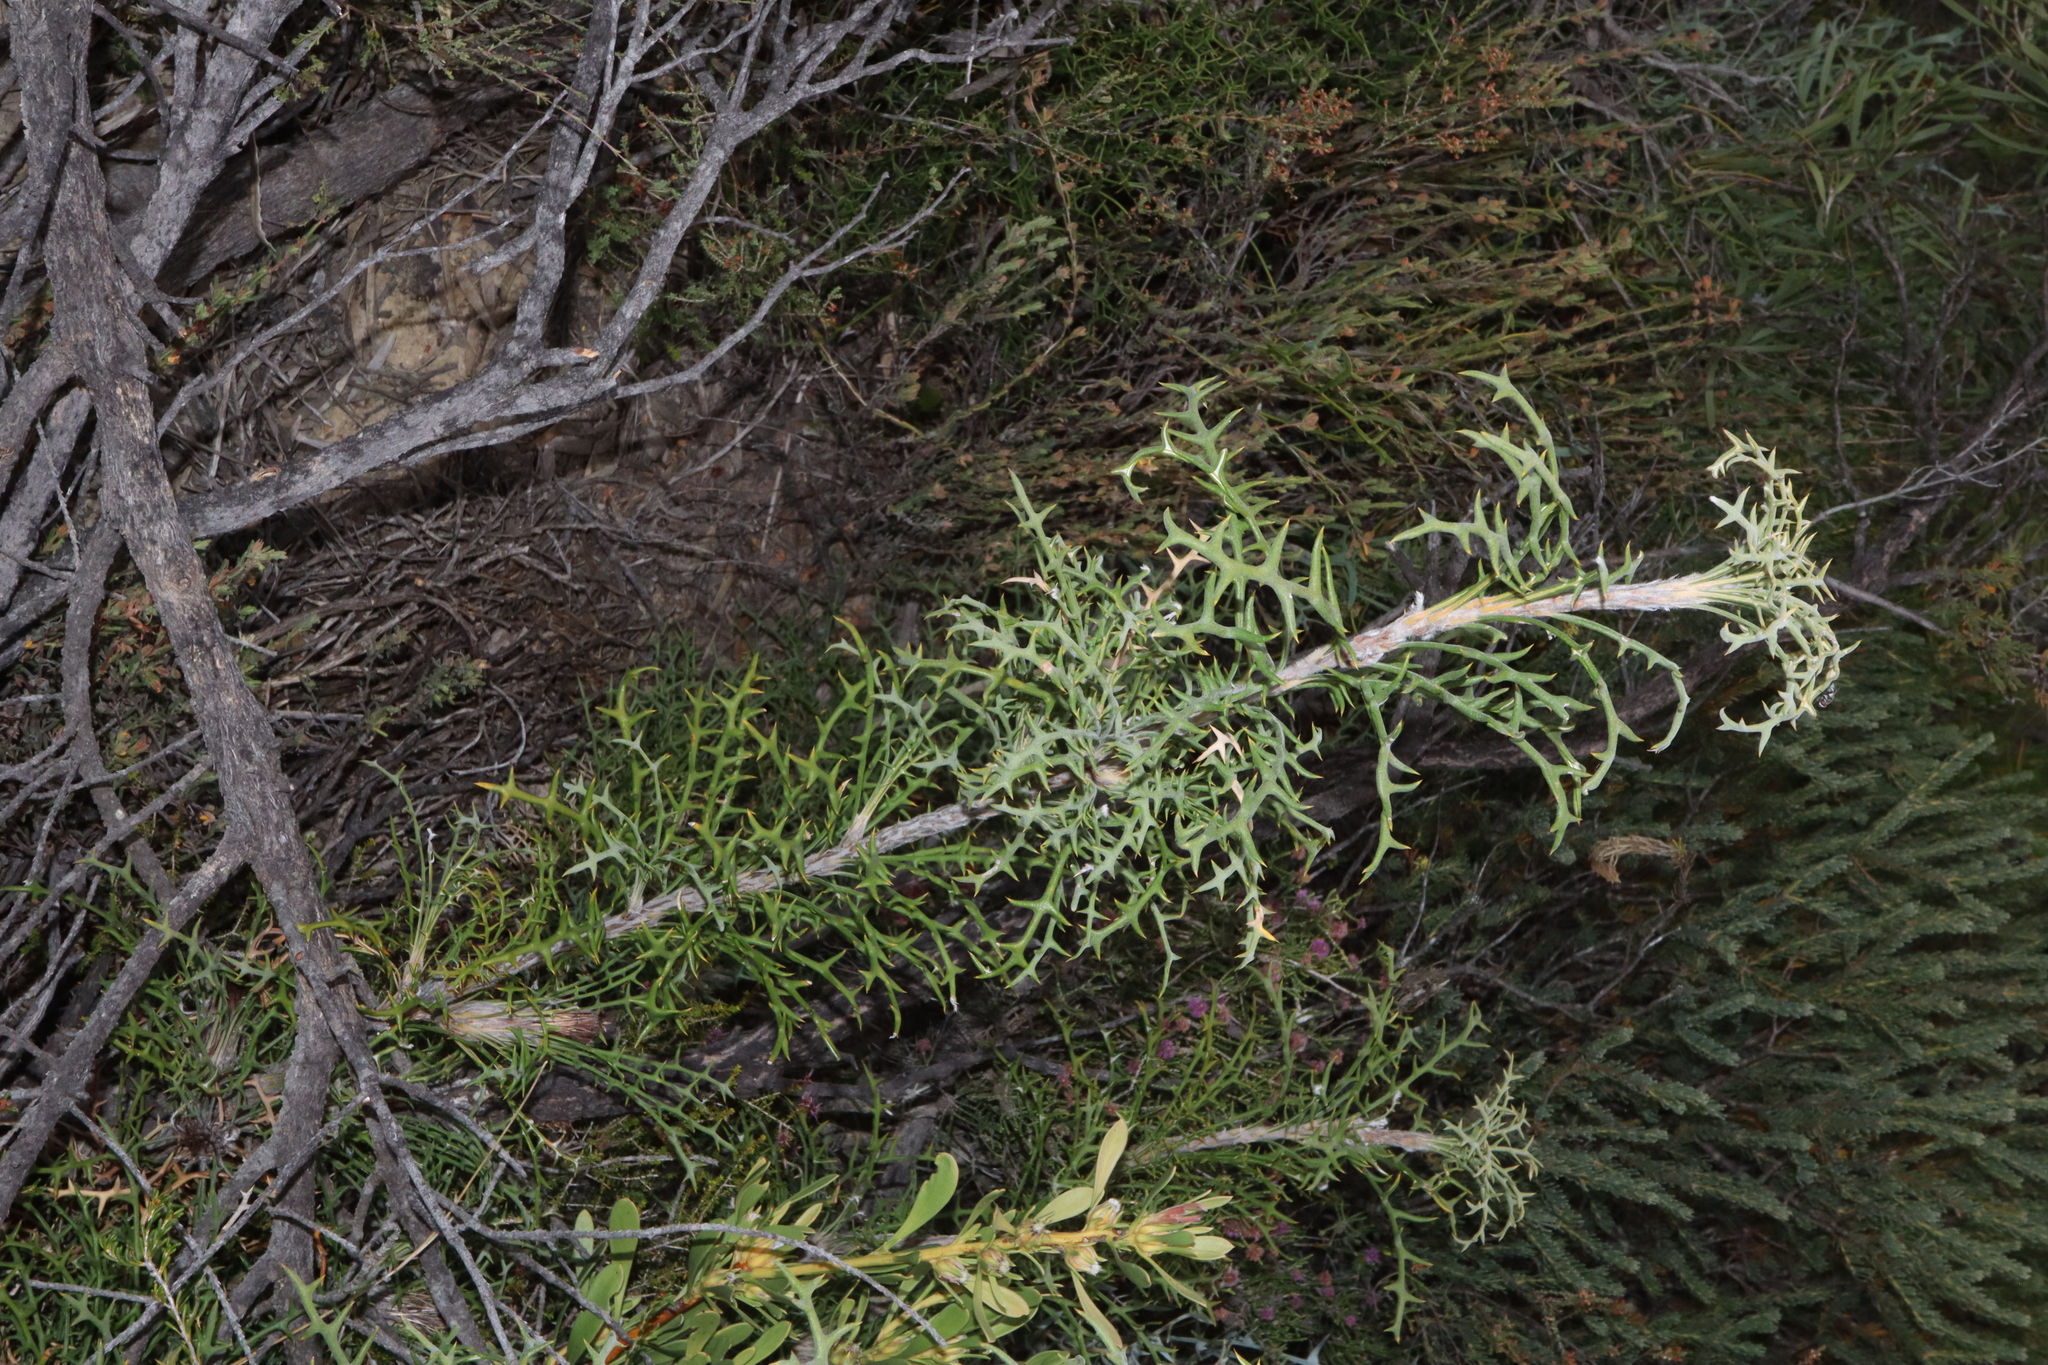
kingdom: Plantae
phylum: Tracheophyta
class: Magnoliopsida
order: Proteales
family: Proteaceae
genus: Banksia
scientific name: Banksia erythrocephala
